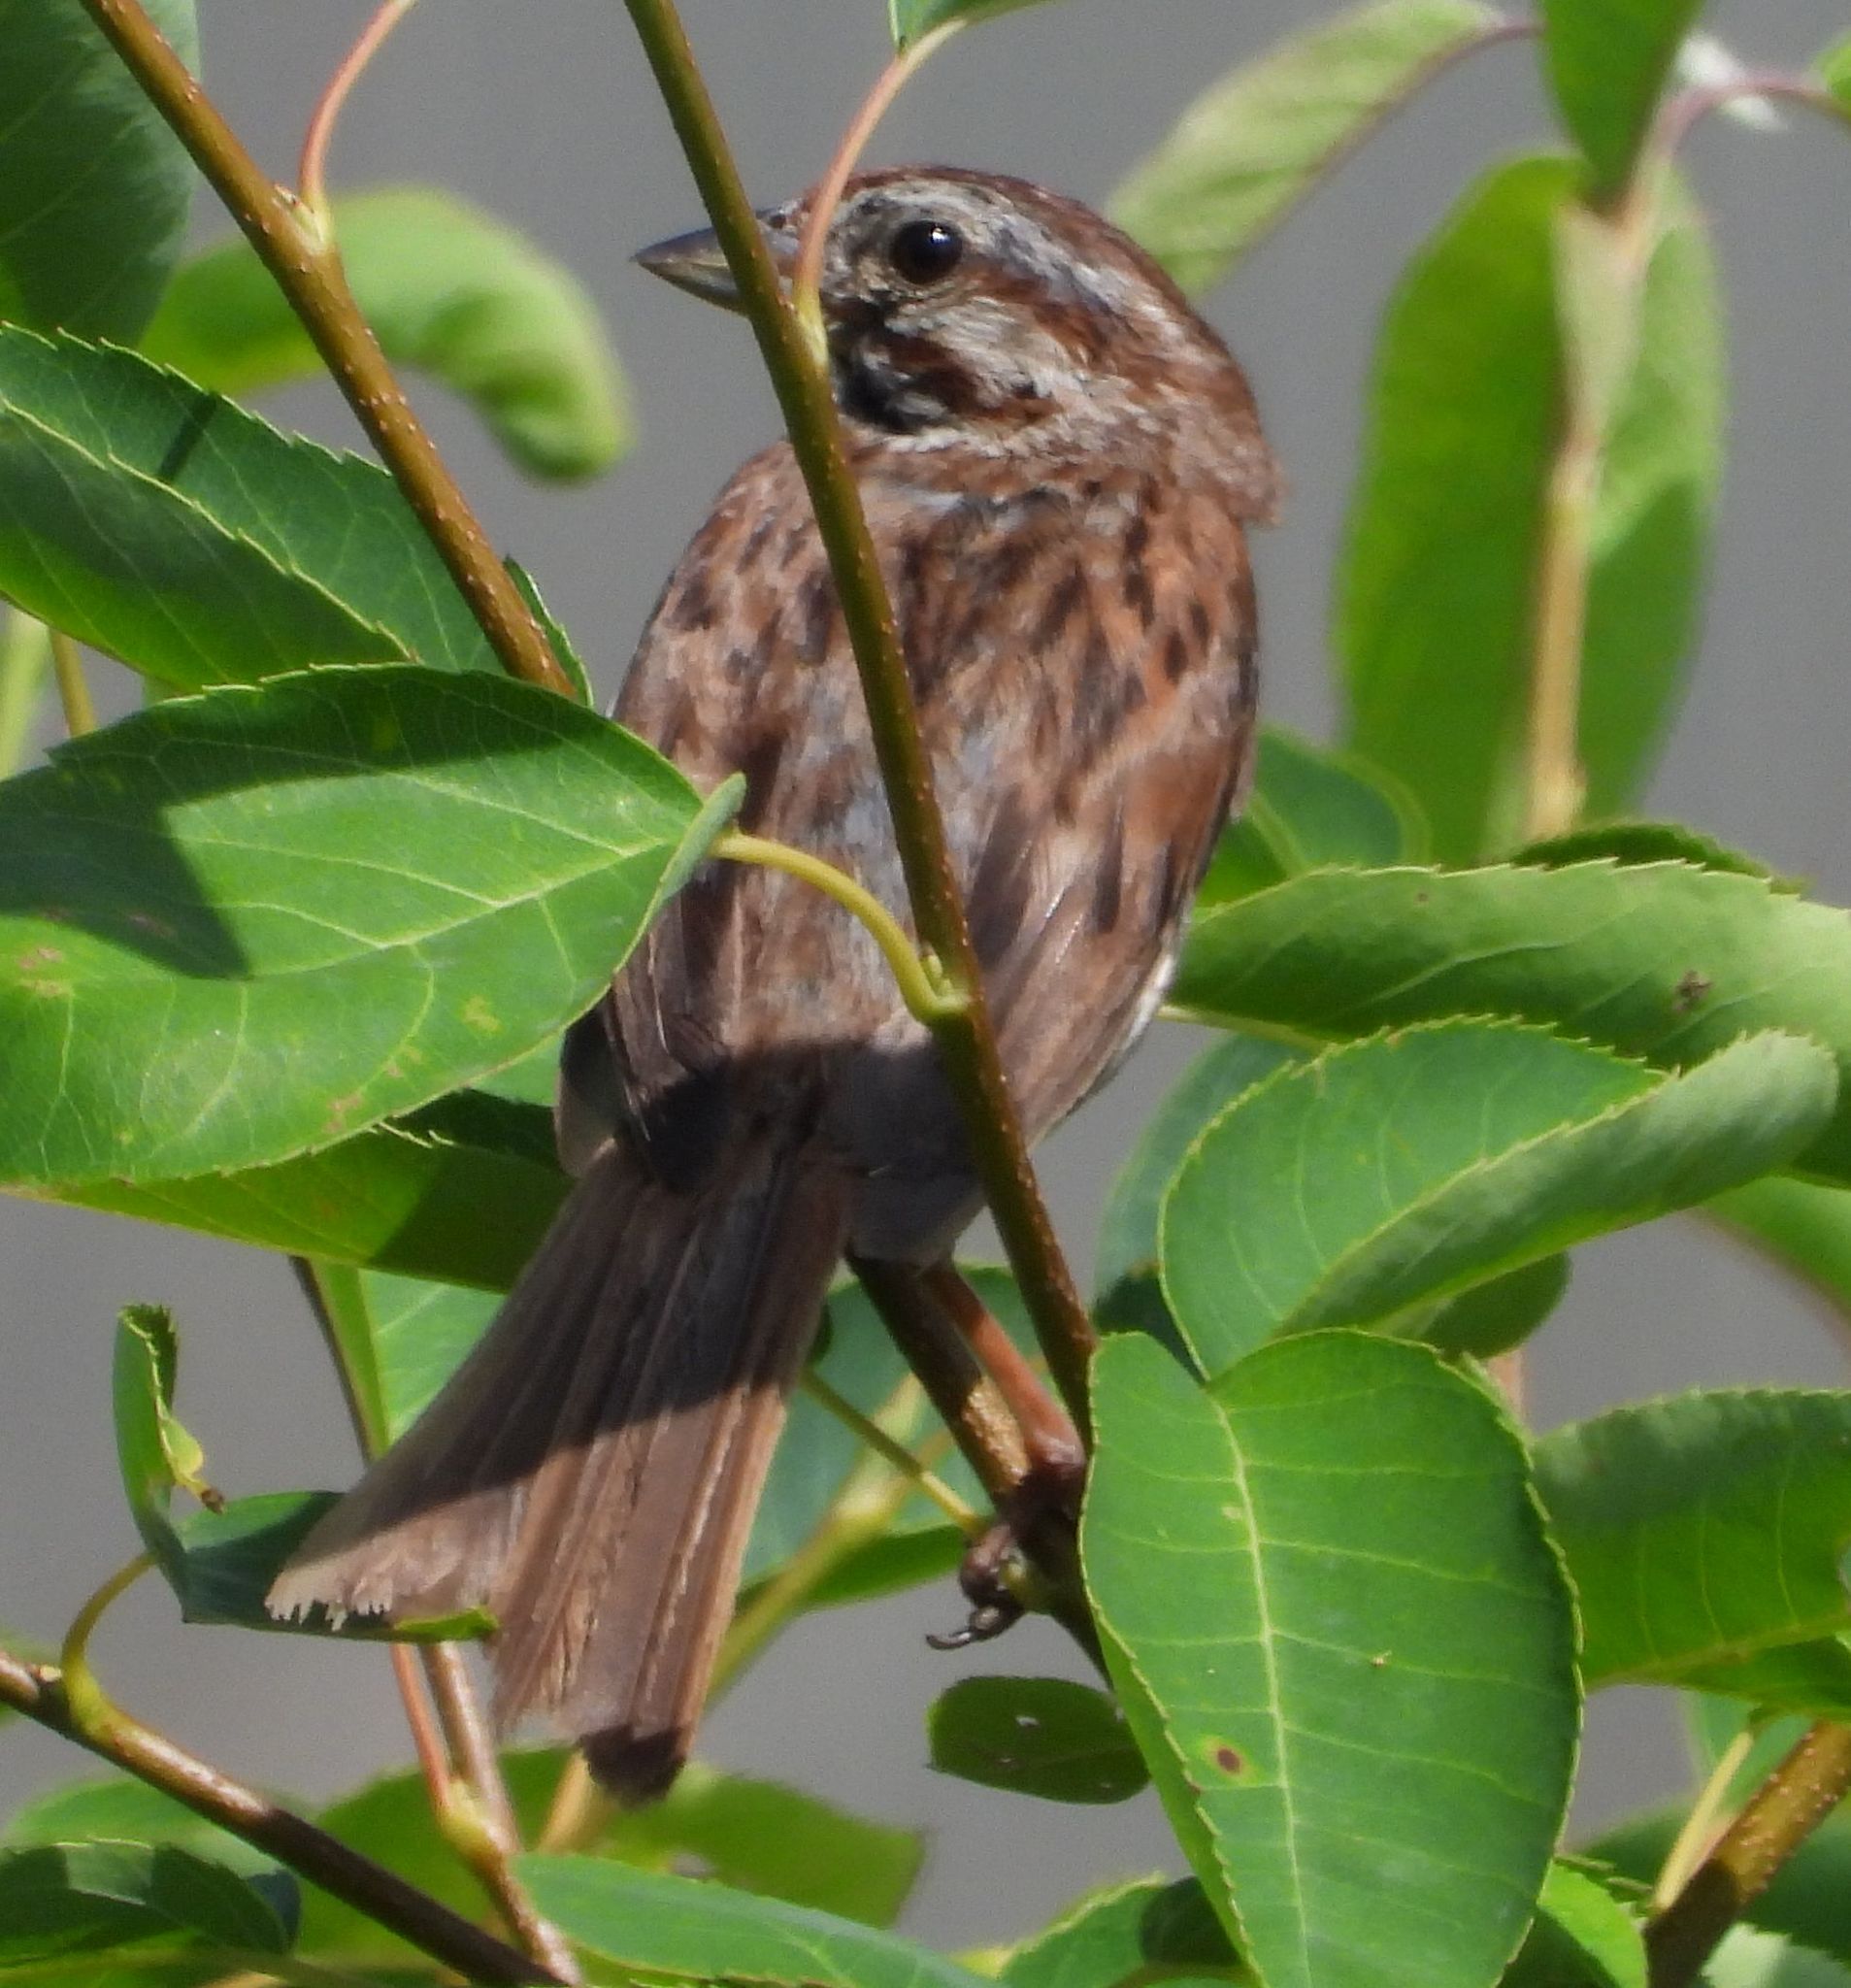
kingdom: Animalia
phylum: Chordata
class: Aves
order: Passeriformes
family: Passerellidae
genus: Melospiza
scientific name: Melospiza melodia
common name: Song sparrow
